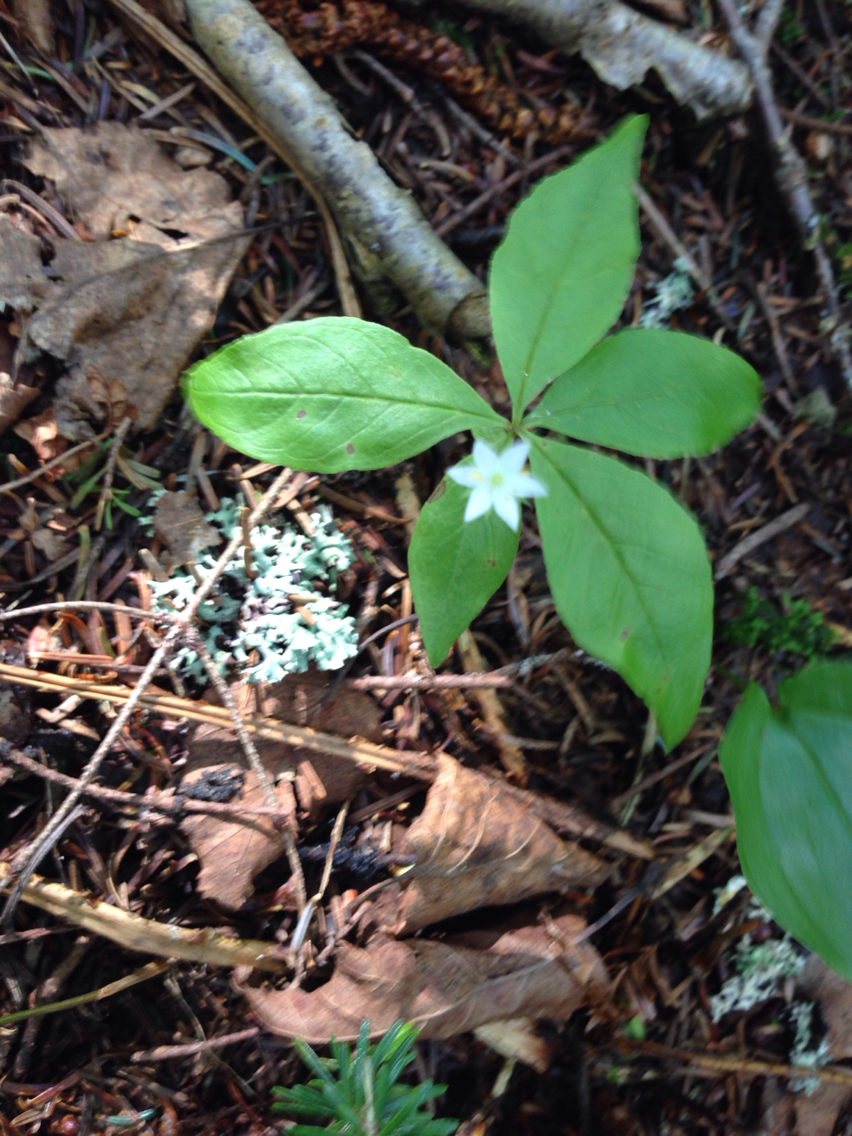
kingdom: Plantae
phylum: Tracheophyta
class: Magnoliopsida
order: Ericales
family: Primulaceae
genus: Lysimachia
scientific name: Lysimachia borealis
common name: American starflower
